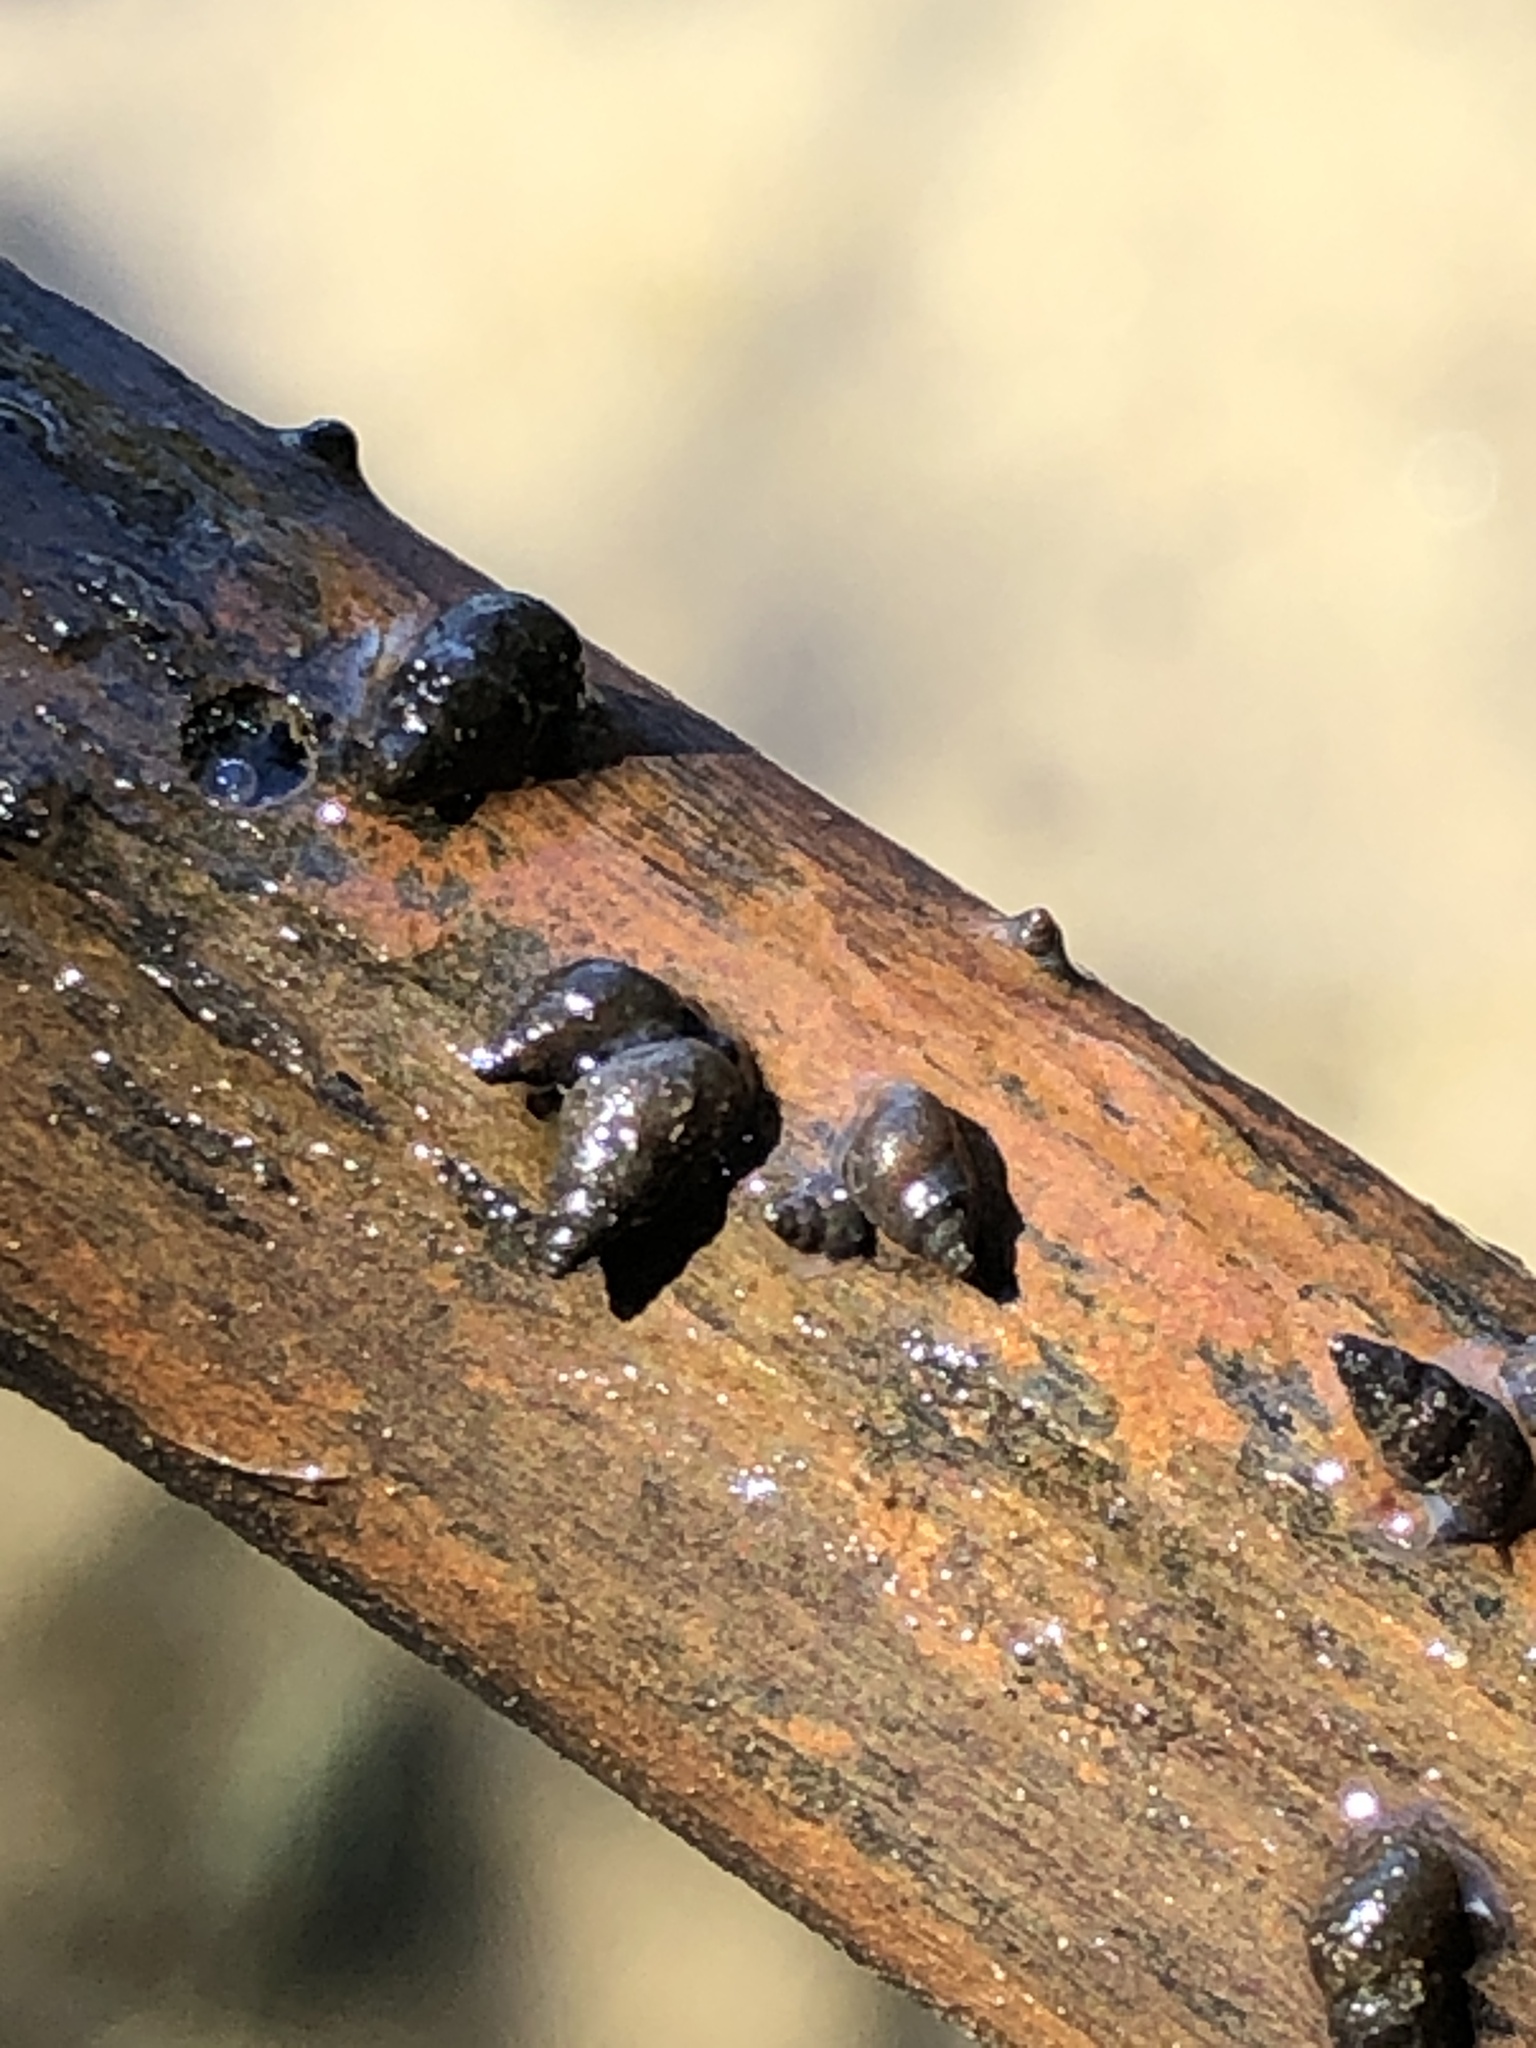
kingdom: Animalia
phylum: Mollusca
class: Gastropoda
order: Littorinimorpha
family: Tateidae
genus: Potamopyrgus
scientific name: Potamopyrgus antipodarum
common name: Jenkins' spire snail
